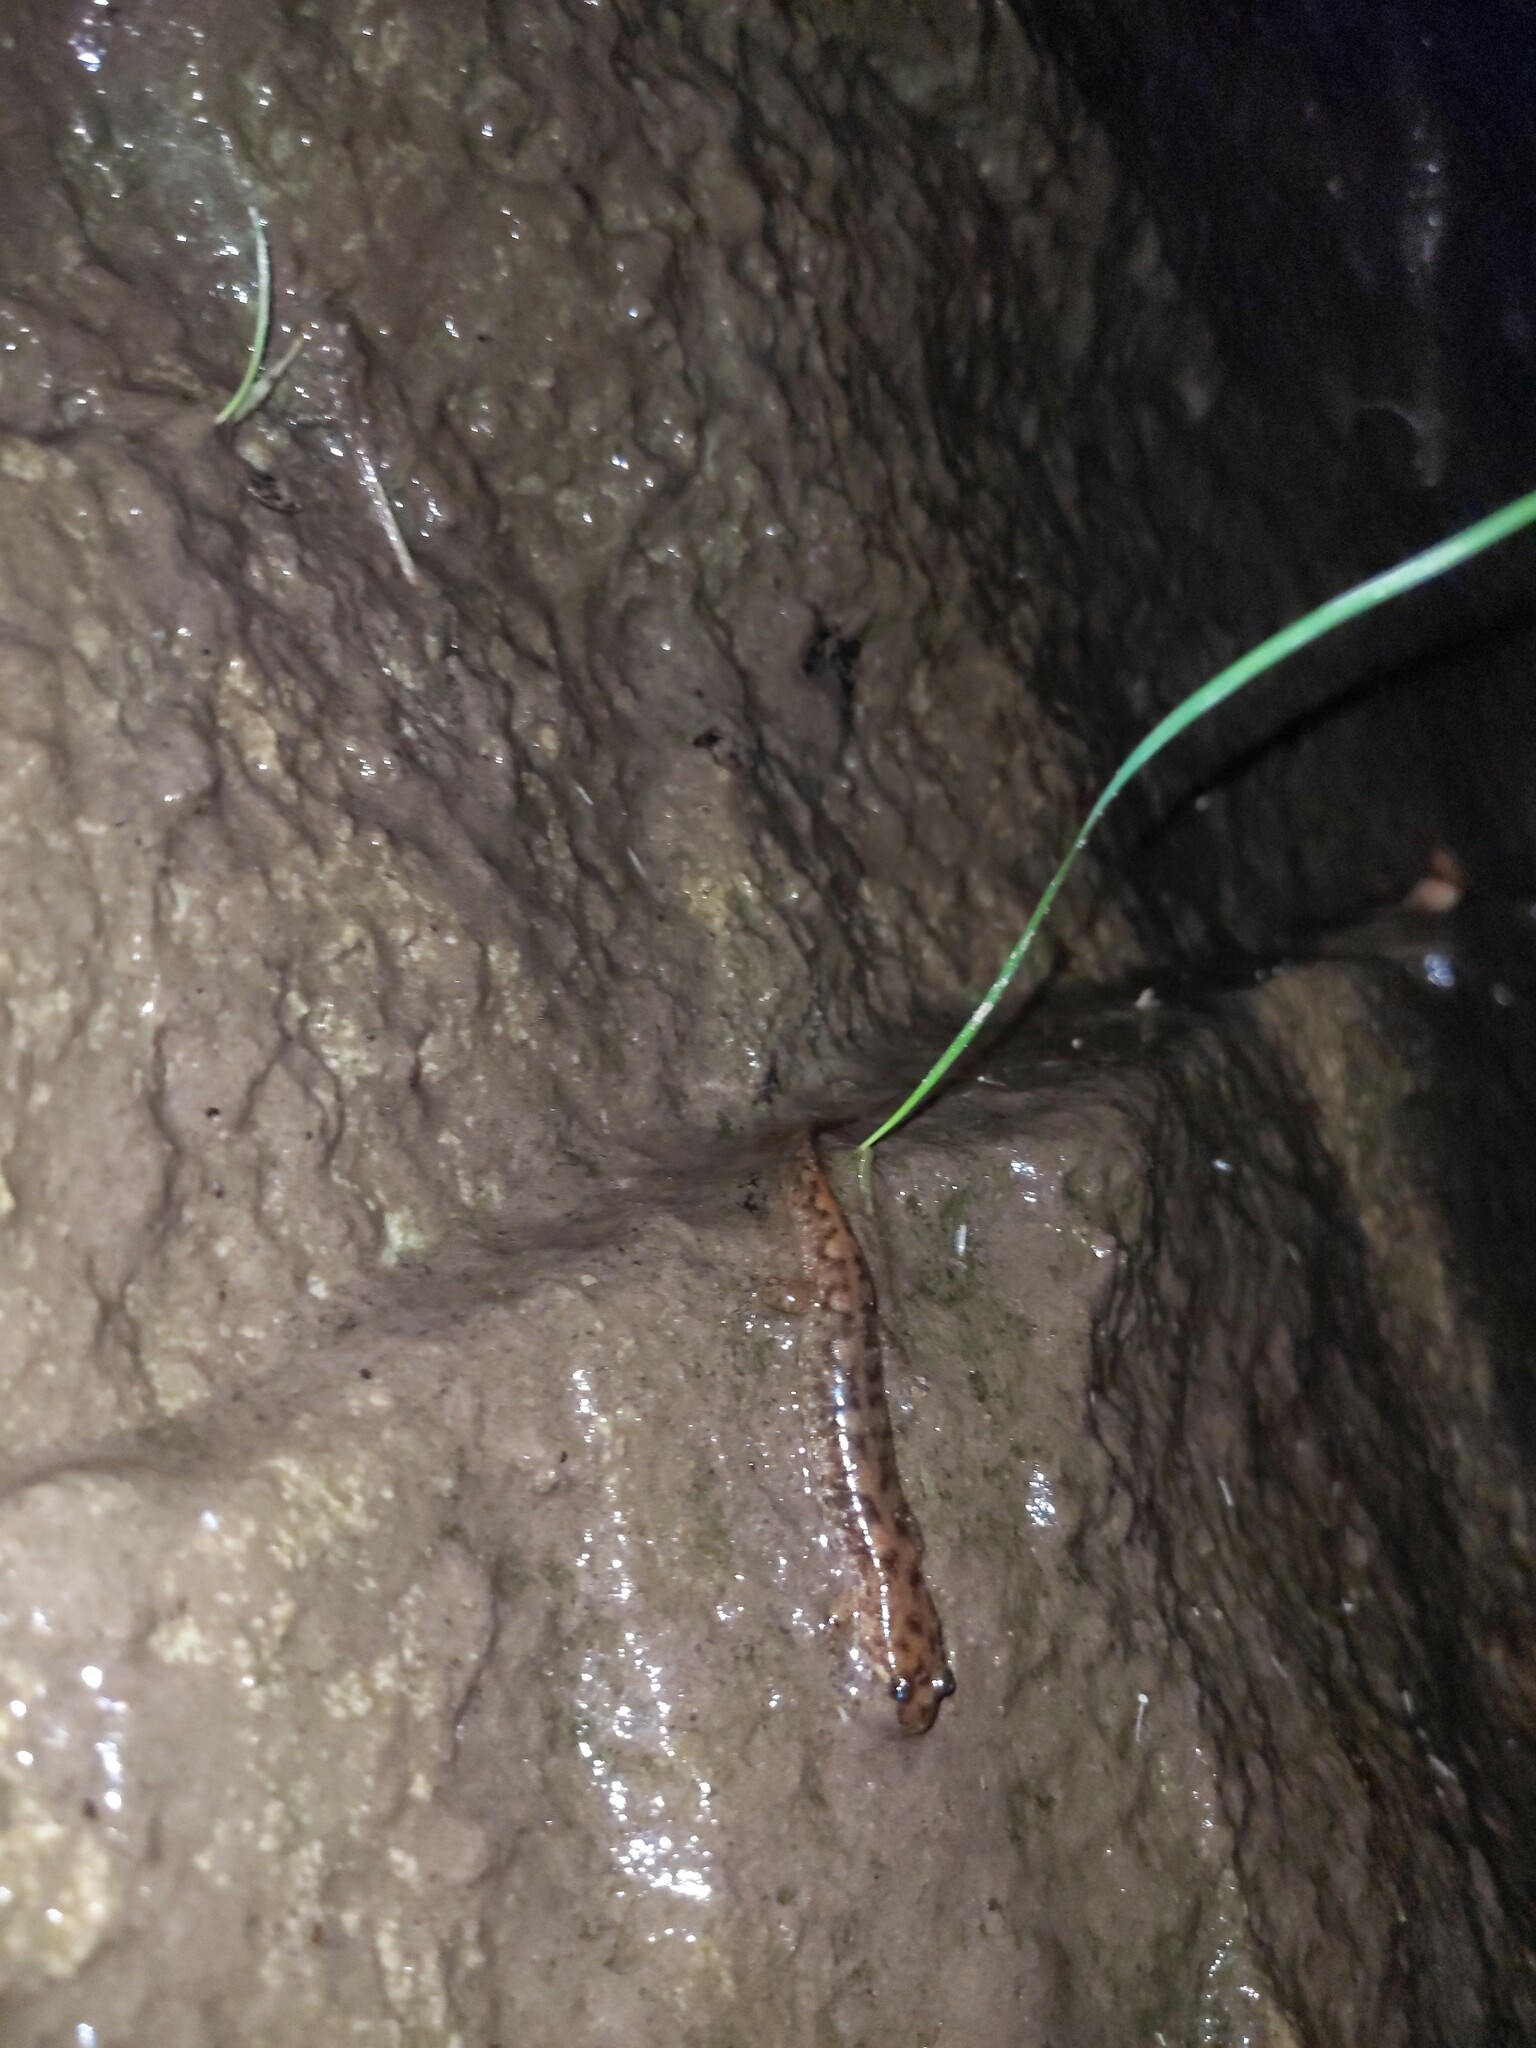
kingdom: Animalia
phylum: Chordata
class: Amphibia
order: Caudata
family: Plethodontidae
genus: Desmognathus
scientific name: Desmognathus monticola
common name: Seal salamander
